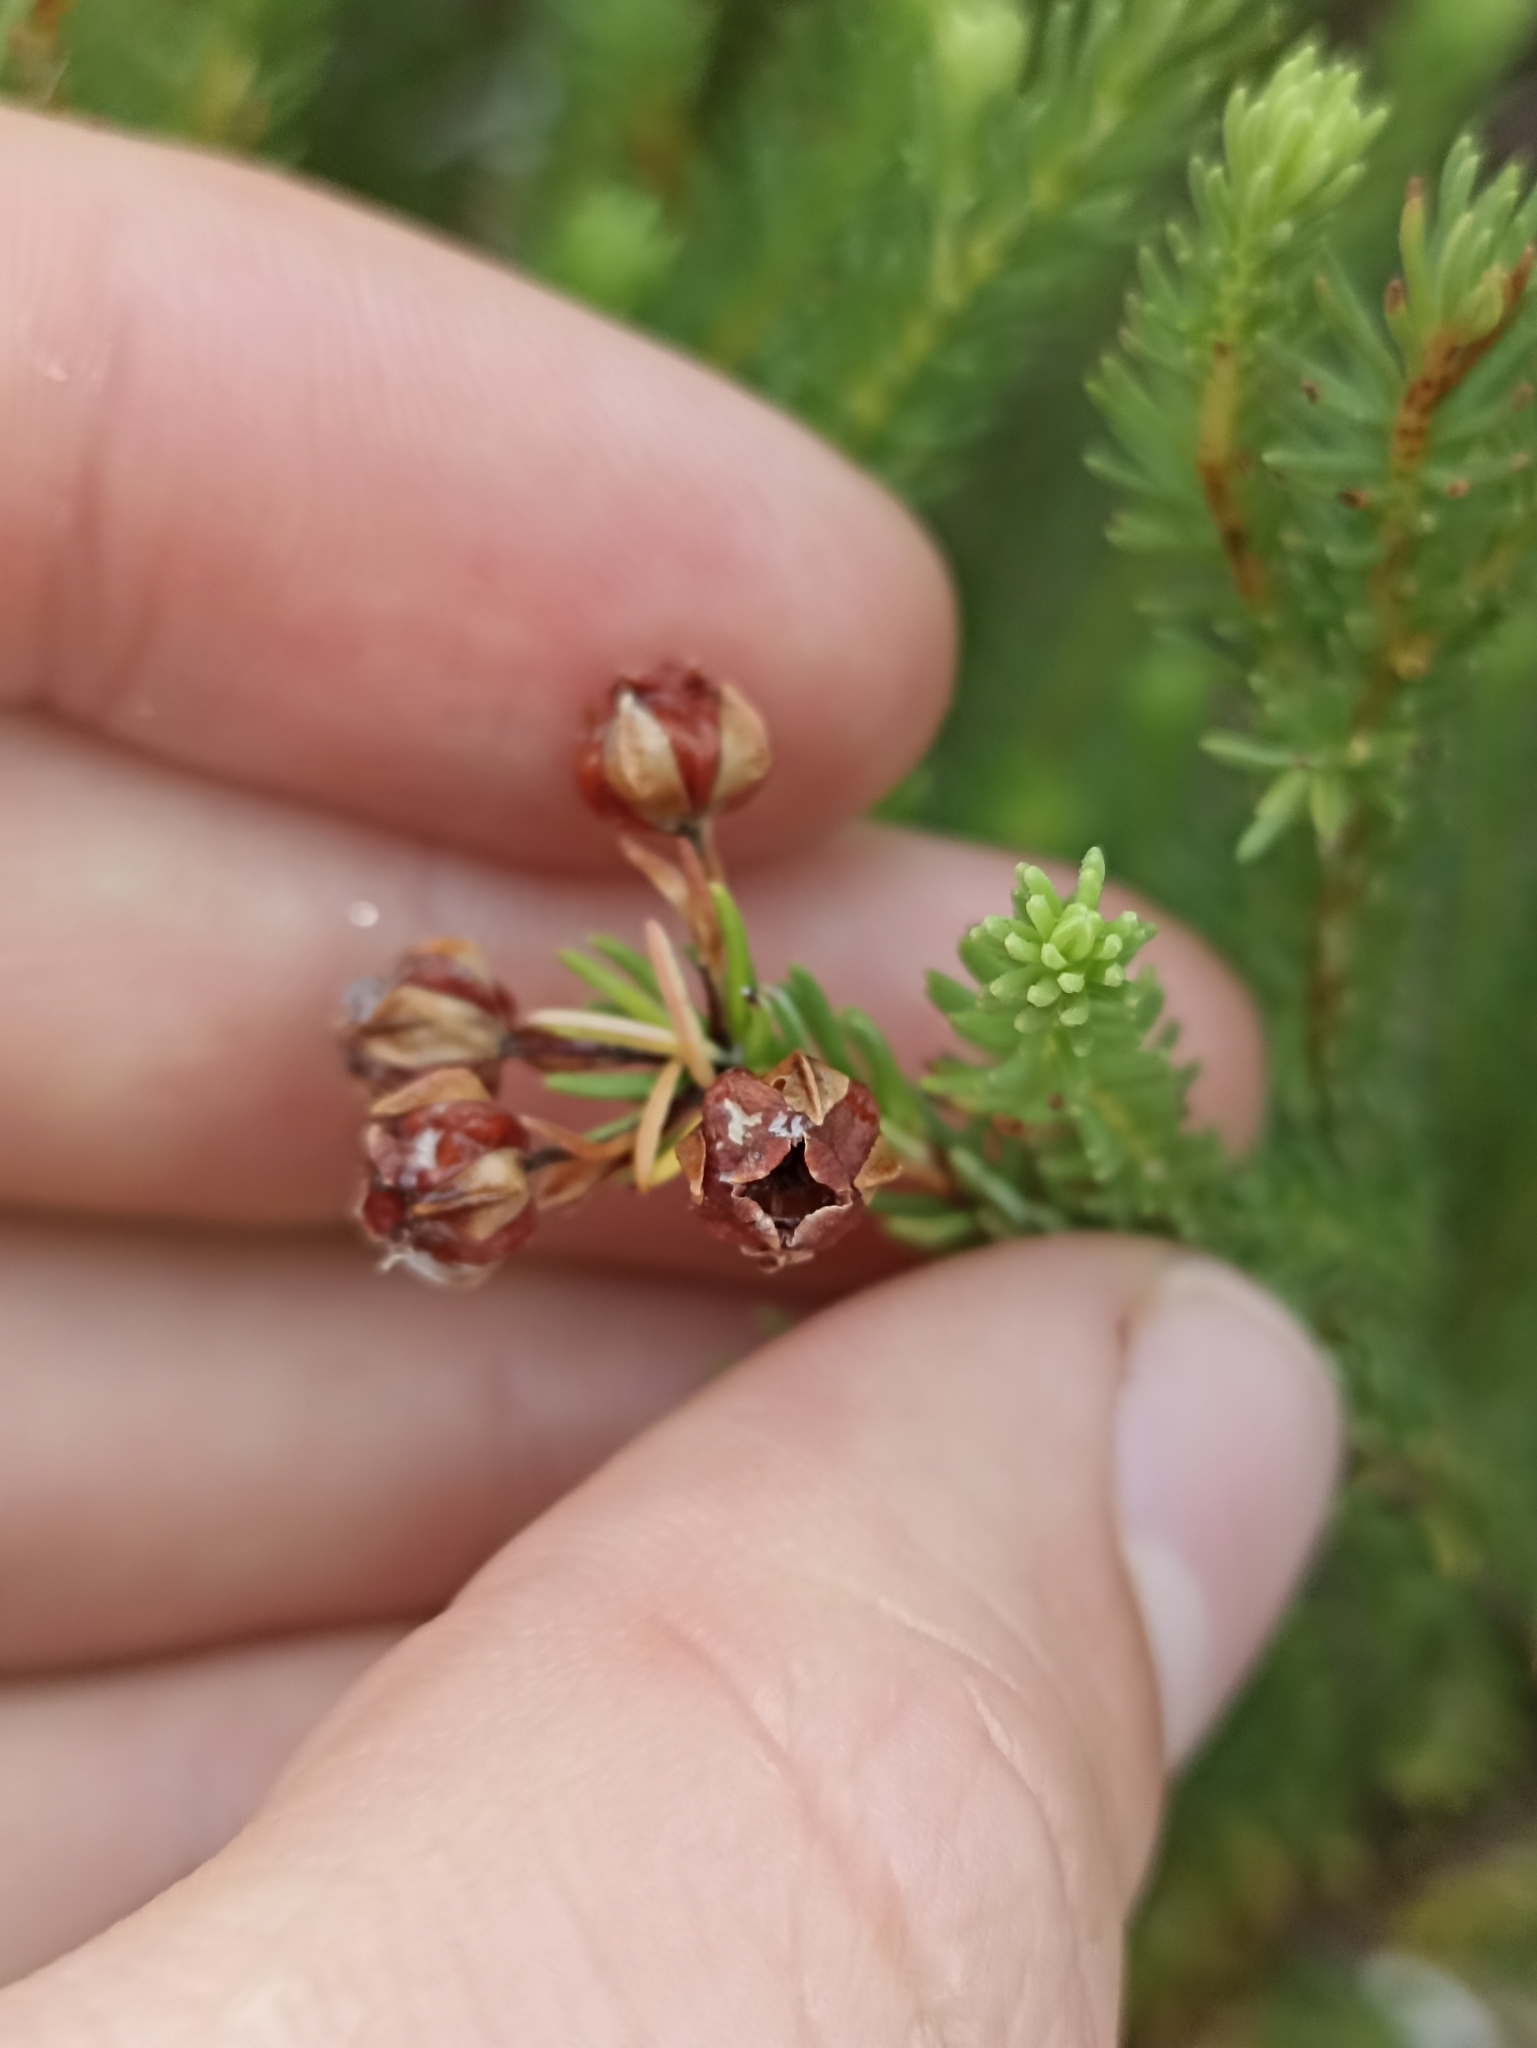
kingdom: Plantae
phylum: Tracheophyta
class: Magnoliopsida
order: Ericales
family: Ericaceae
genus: Erica
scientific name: Erica baccans
